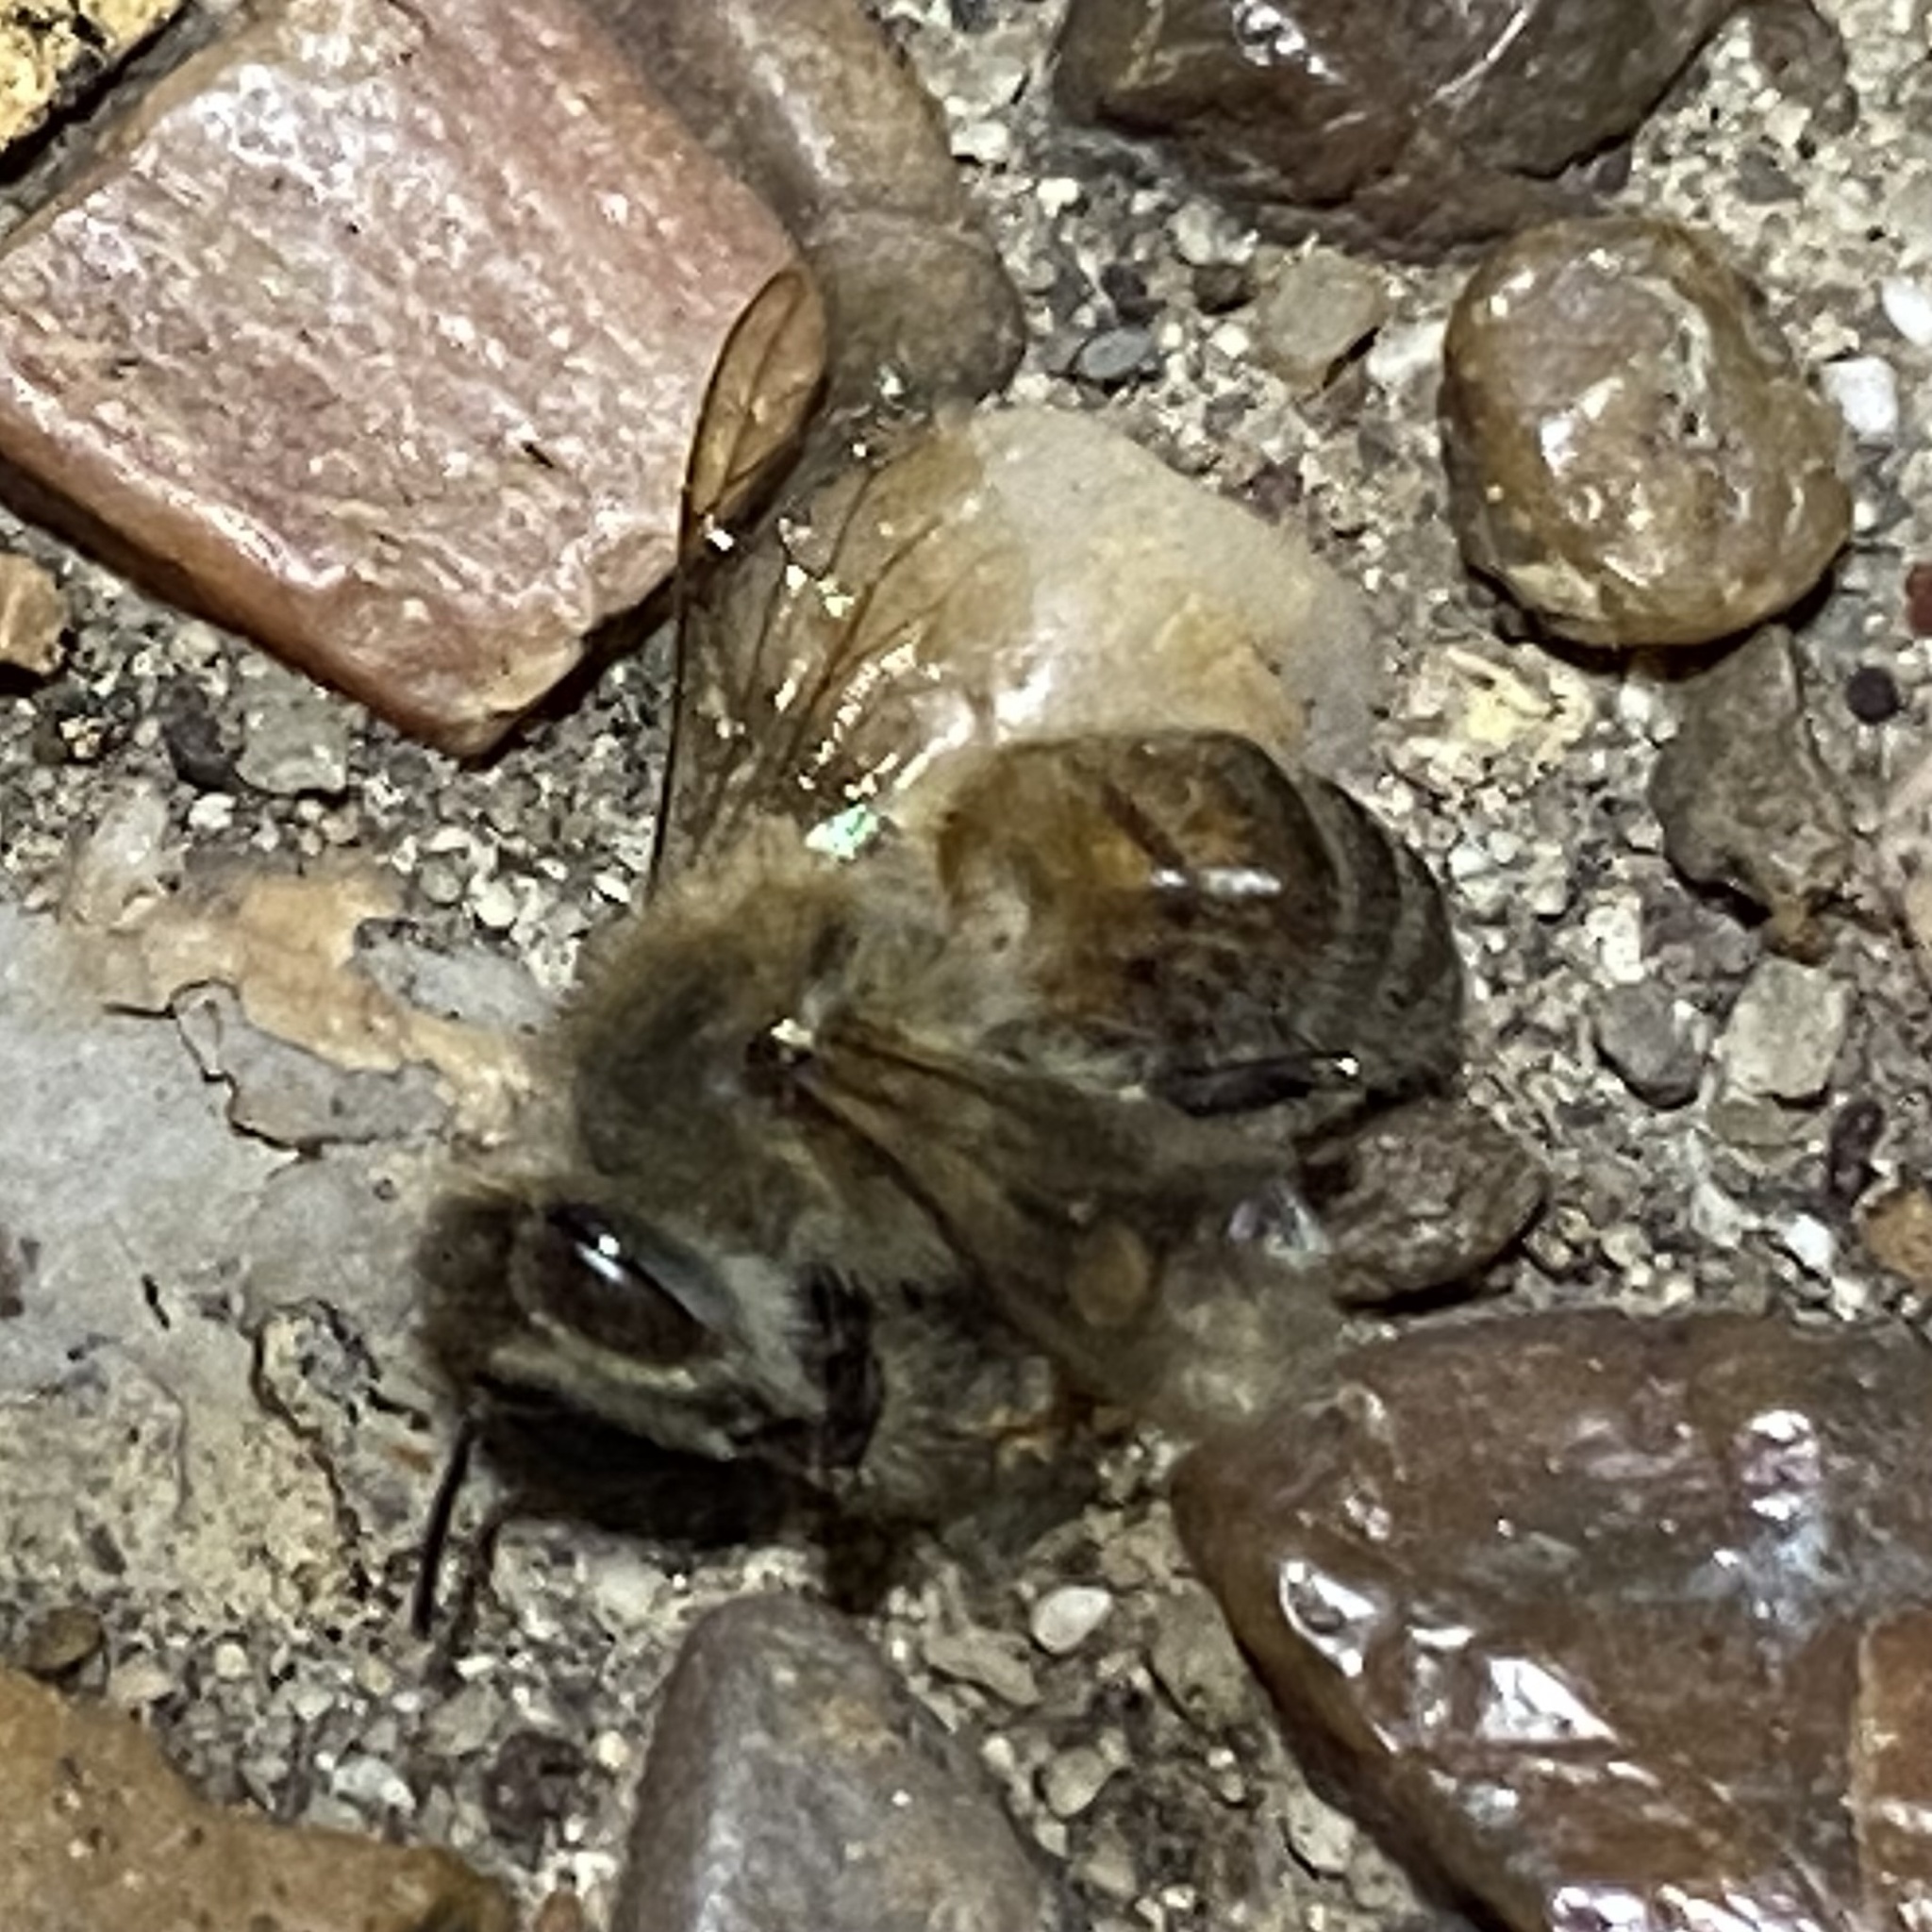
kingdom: Animalia
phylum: Arthropoda
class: Insecta
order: Hymenoptera
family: Apidae
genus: Apis
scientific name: Apis mellifera
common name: Honey bee
